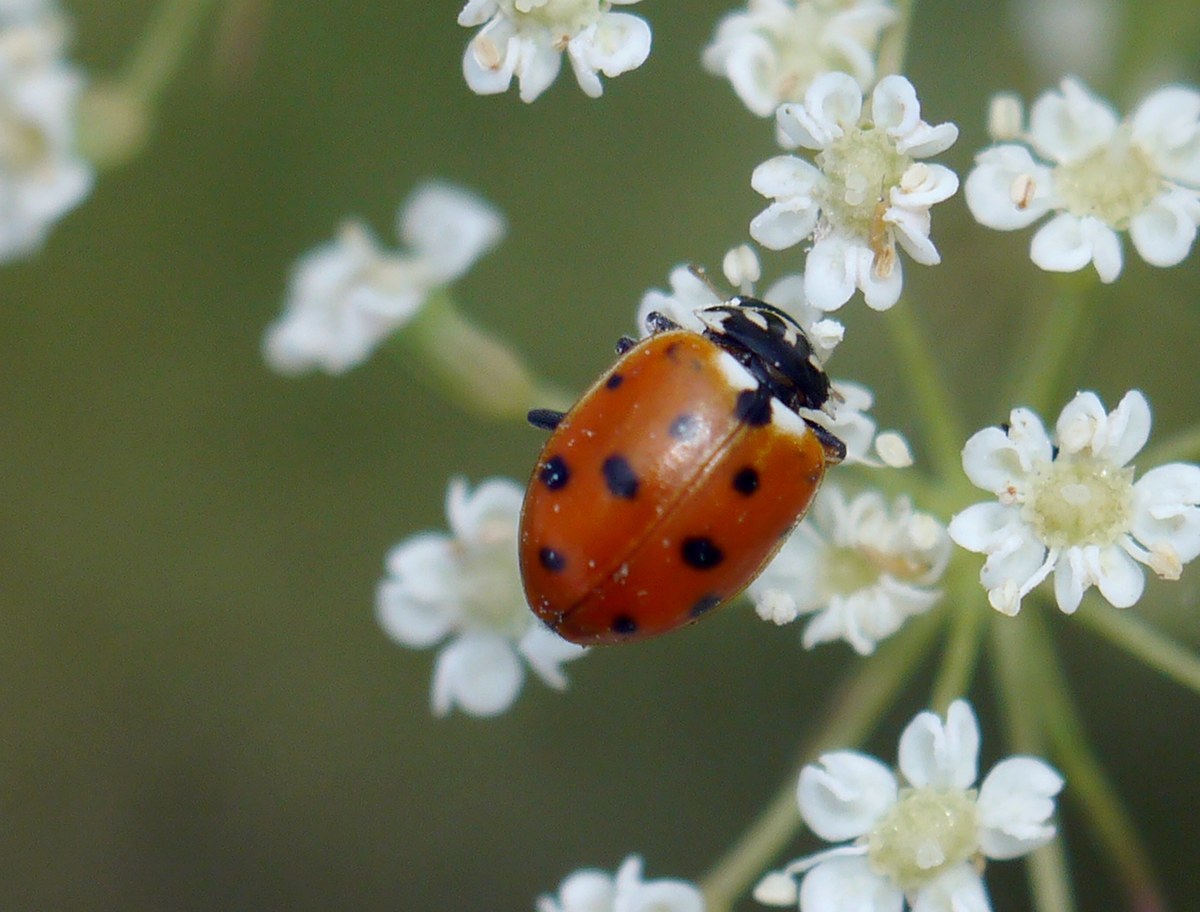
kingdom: Animalia
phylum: Arthropoda
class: Insecta
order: Coleoptera
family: Coccinellidae
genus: Hippodamia
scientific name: Hippodamia variegata
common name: Ladybird beetle
